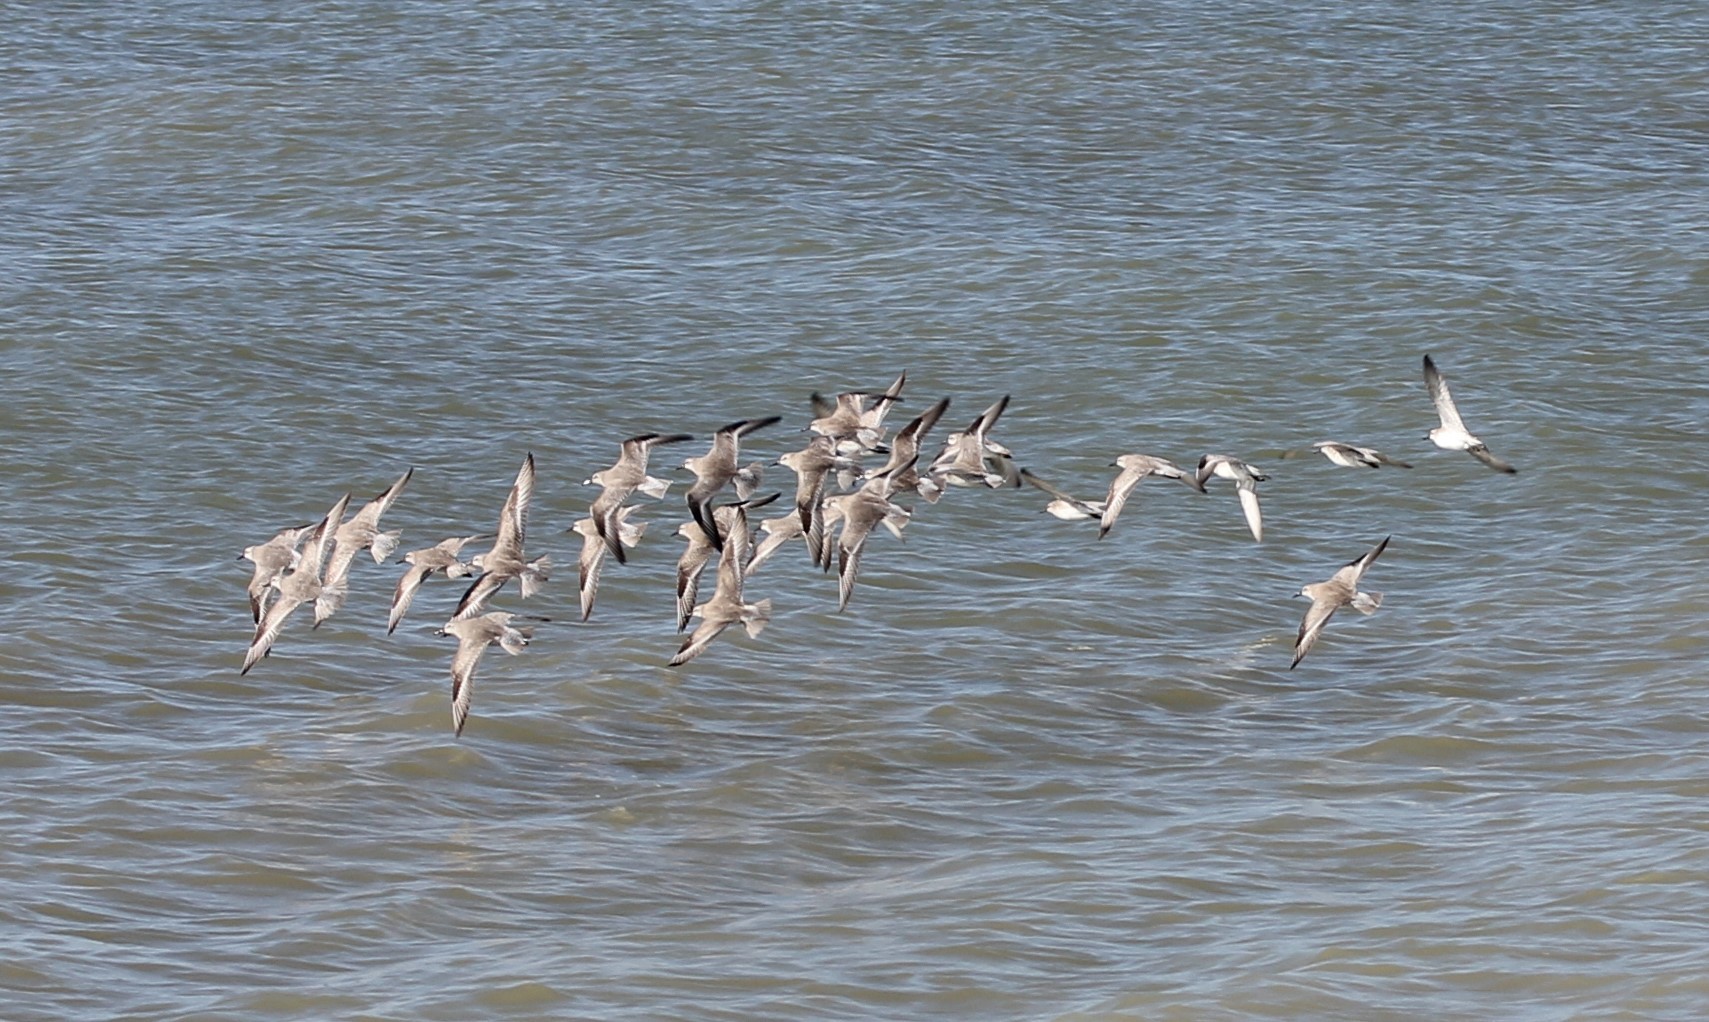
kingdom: Animalia
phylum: Chordata
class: Aves
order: Charadriiformes
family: Scolopacidae
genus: Calidris
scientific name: Calidris alba
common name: Sanderling
